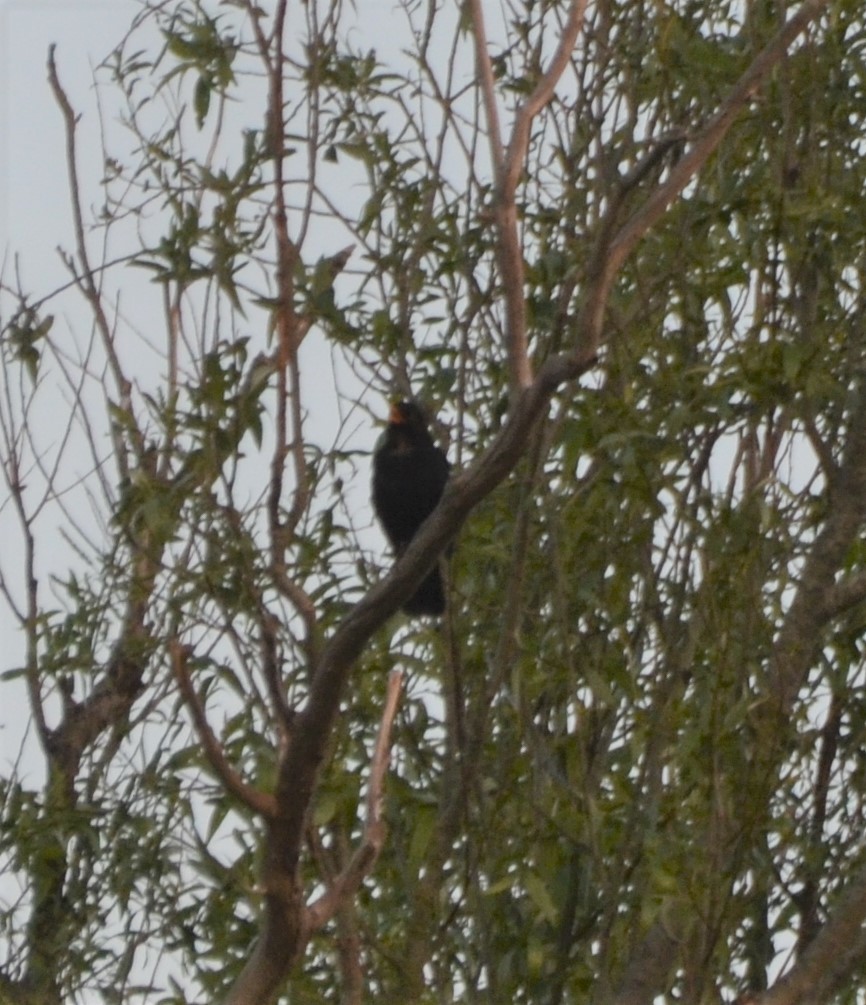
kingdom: Animalia
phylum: Chordata
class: Aves
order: Passeriformes
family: Turdidae
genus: Turdus
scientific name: Turdus merula
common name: Common blackbird
